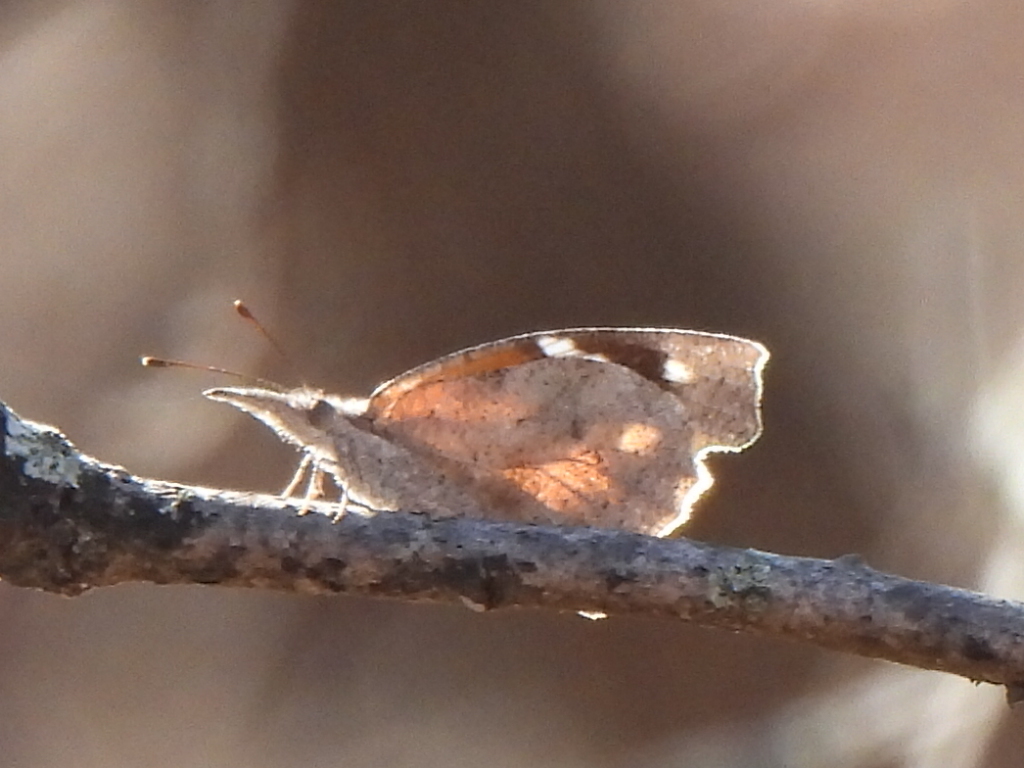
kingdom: Animalia
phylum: Arthropoda
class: Insecta
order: Lepidoptera
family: Nymphalidae
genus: Libytheana
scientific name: Libytheana carinenta
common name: American snout
